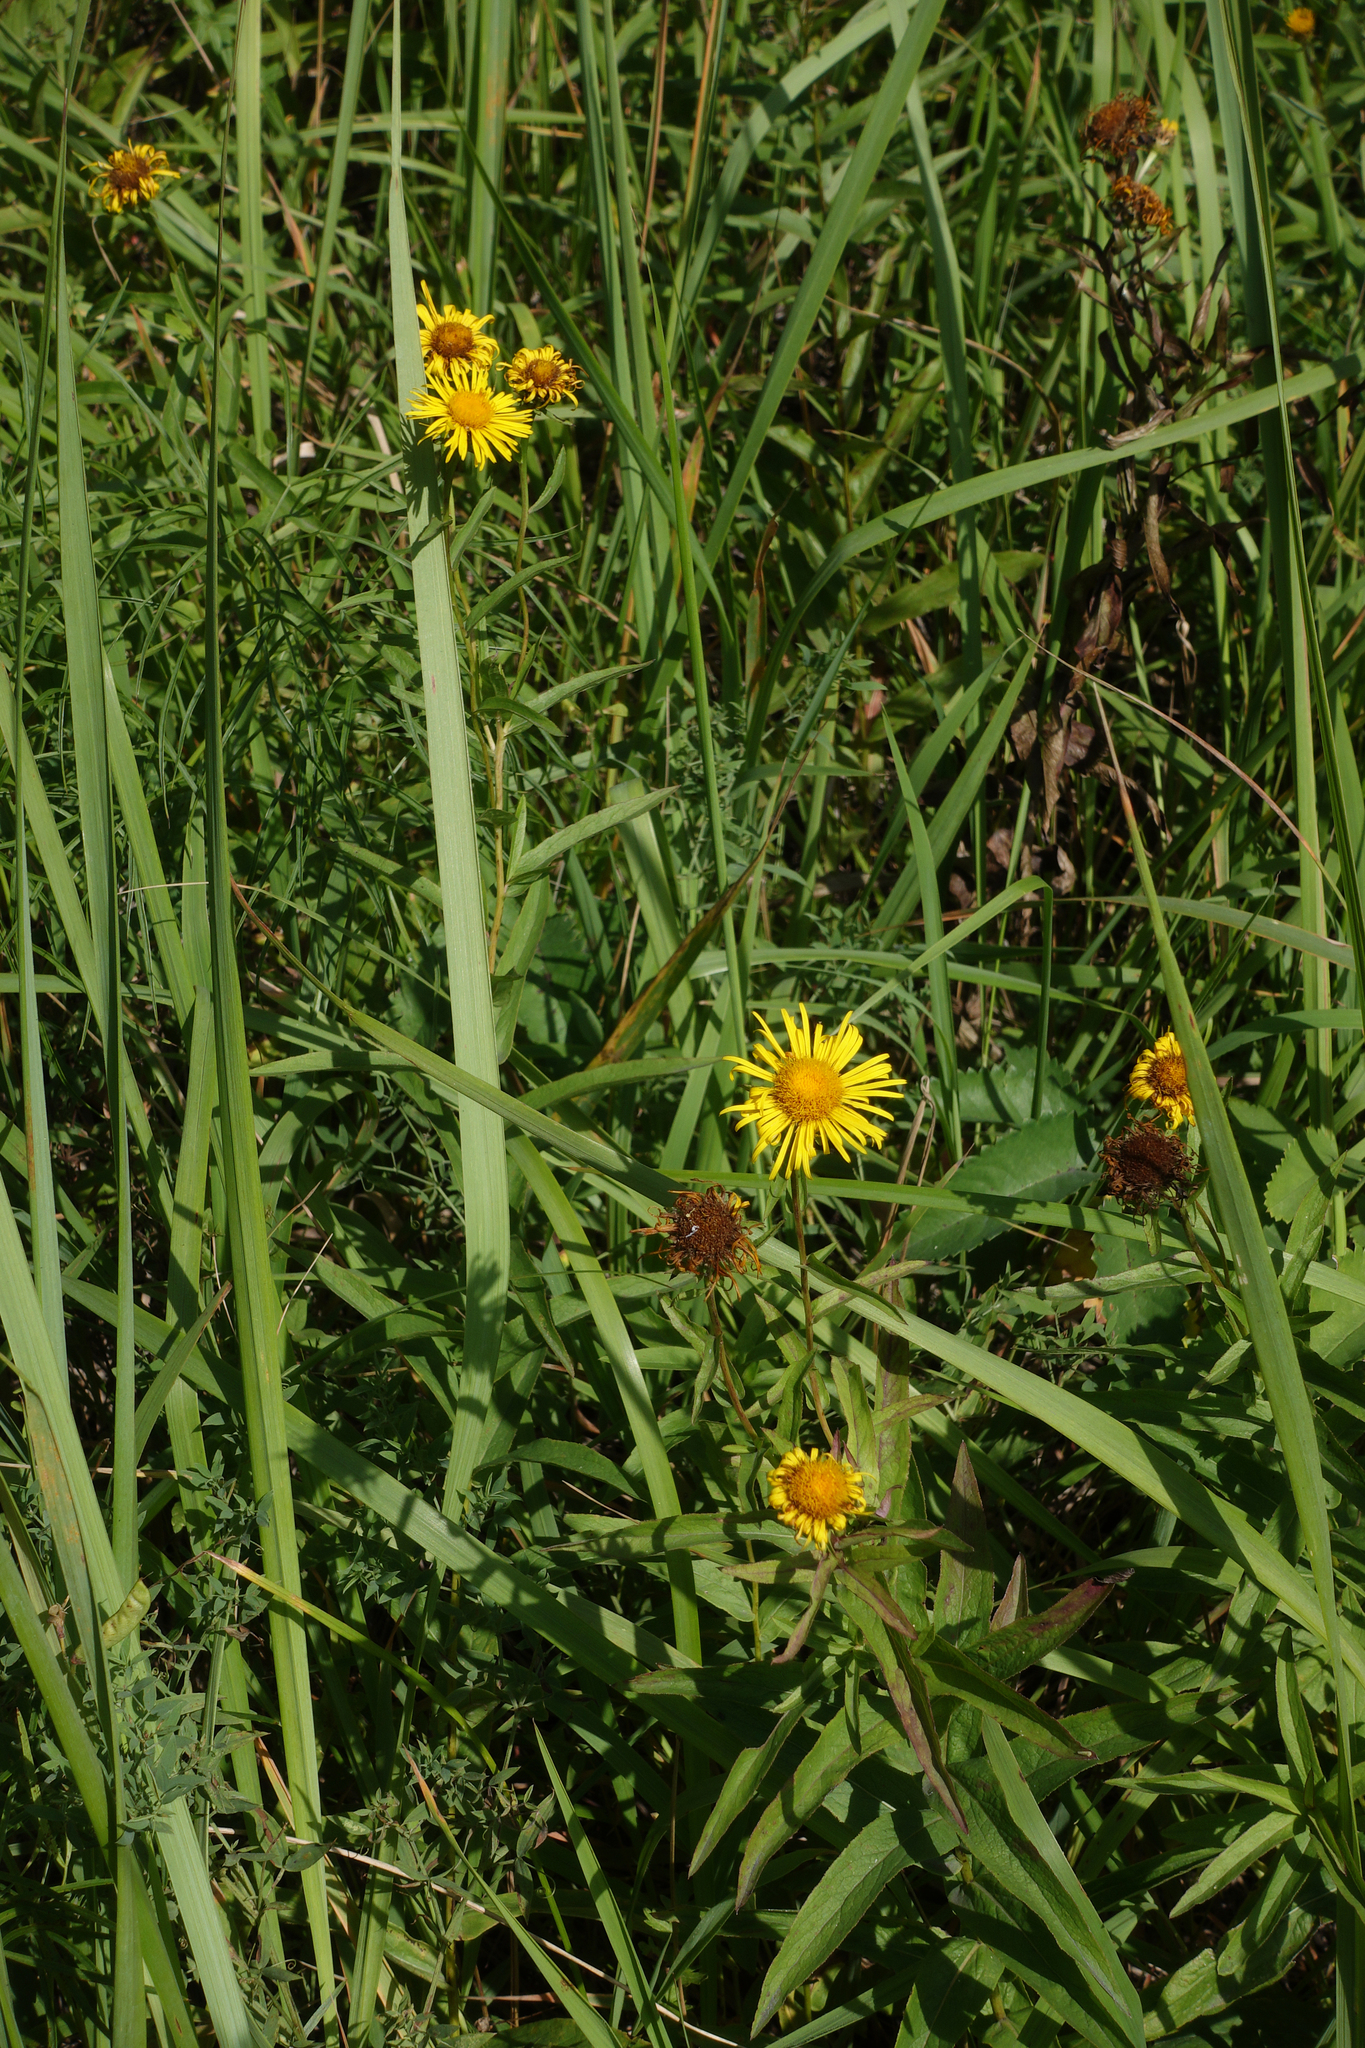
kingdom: Plantae
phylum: Tracheophyta
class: Magnoliopsida
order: Asterales
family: Asteraceae
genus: Pentanema
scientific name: Pentanema salicinum
